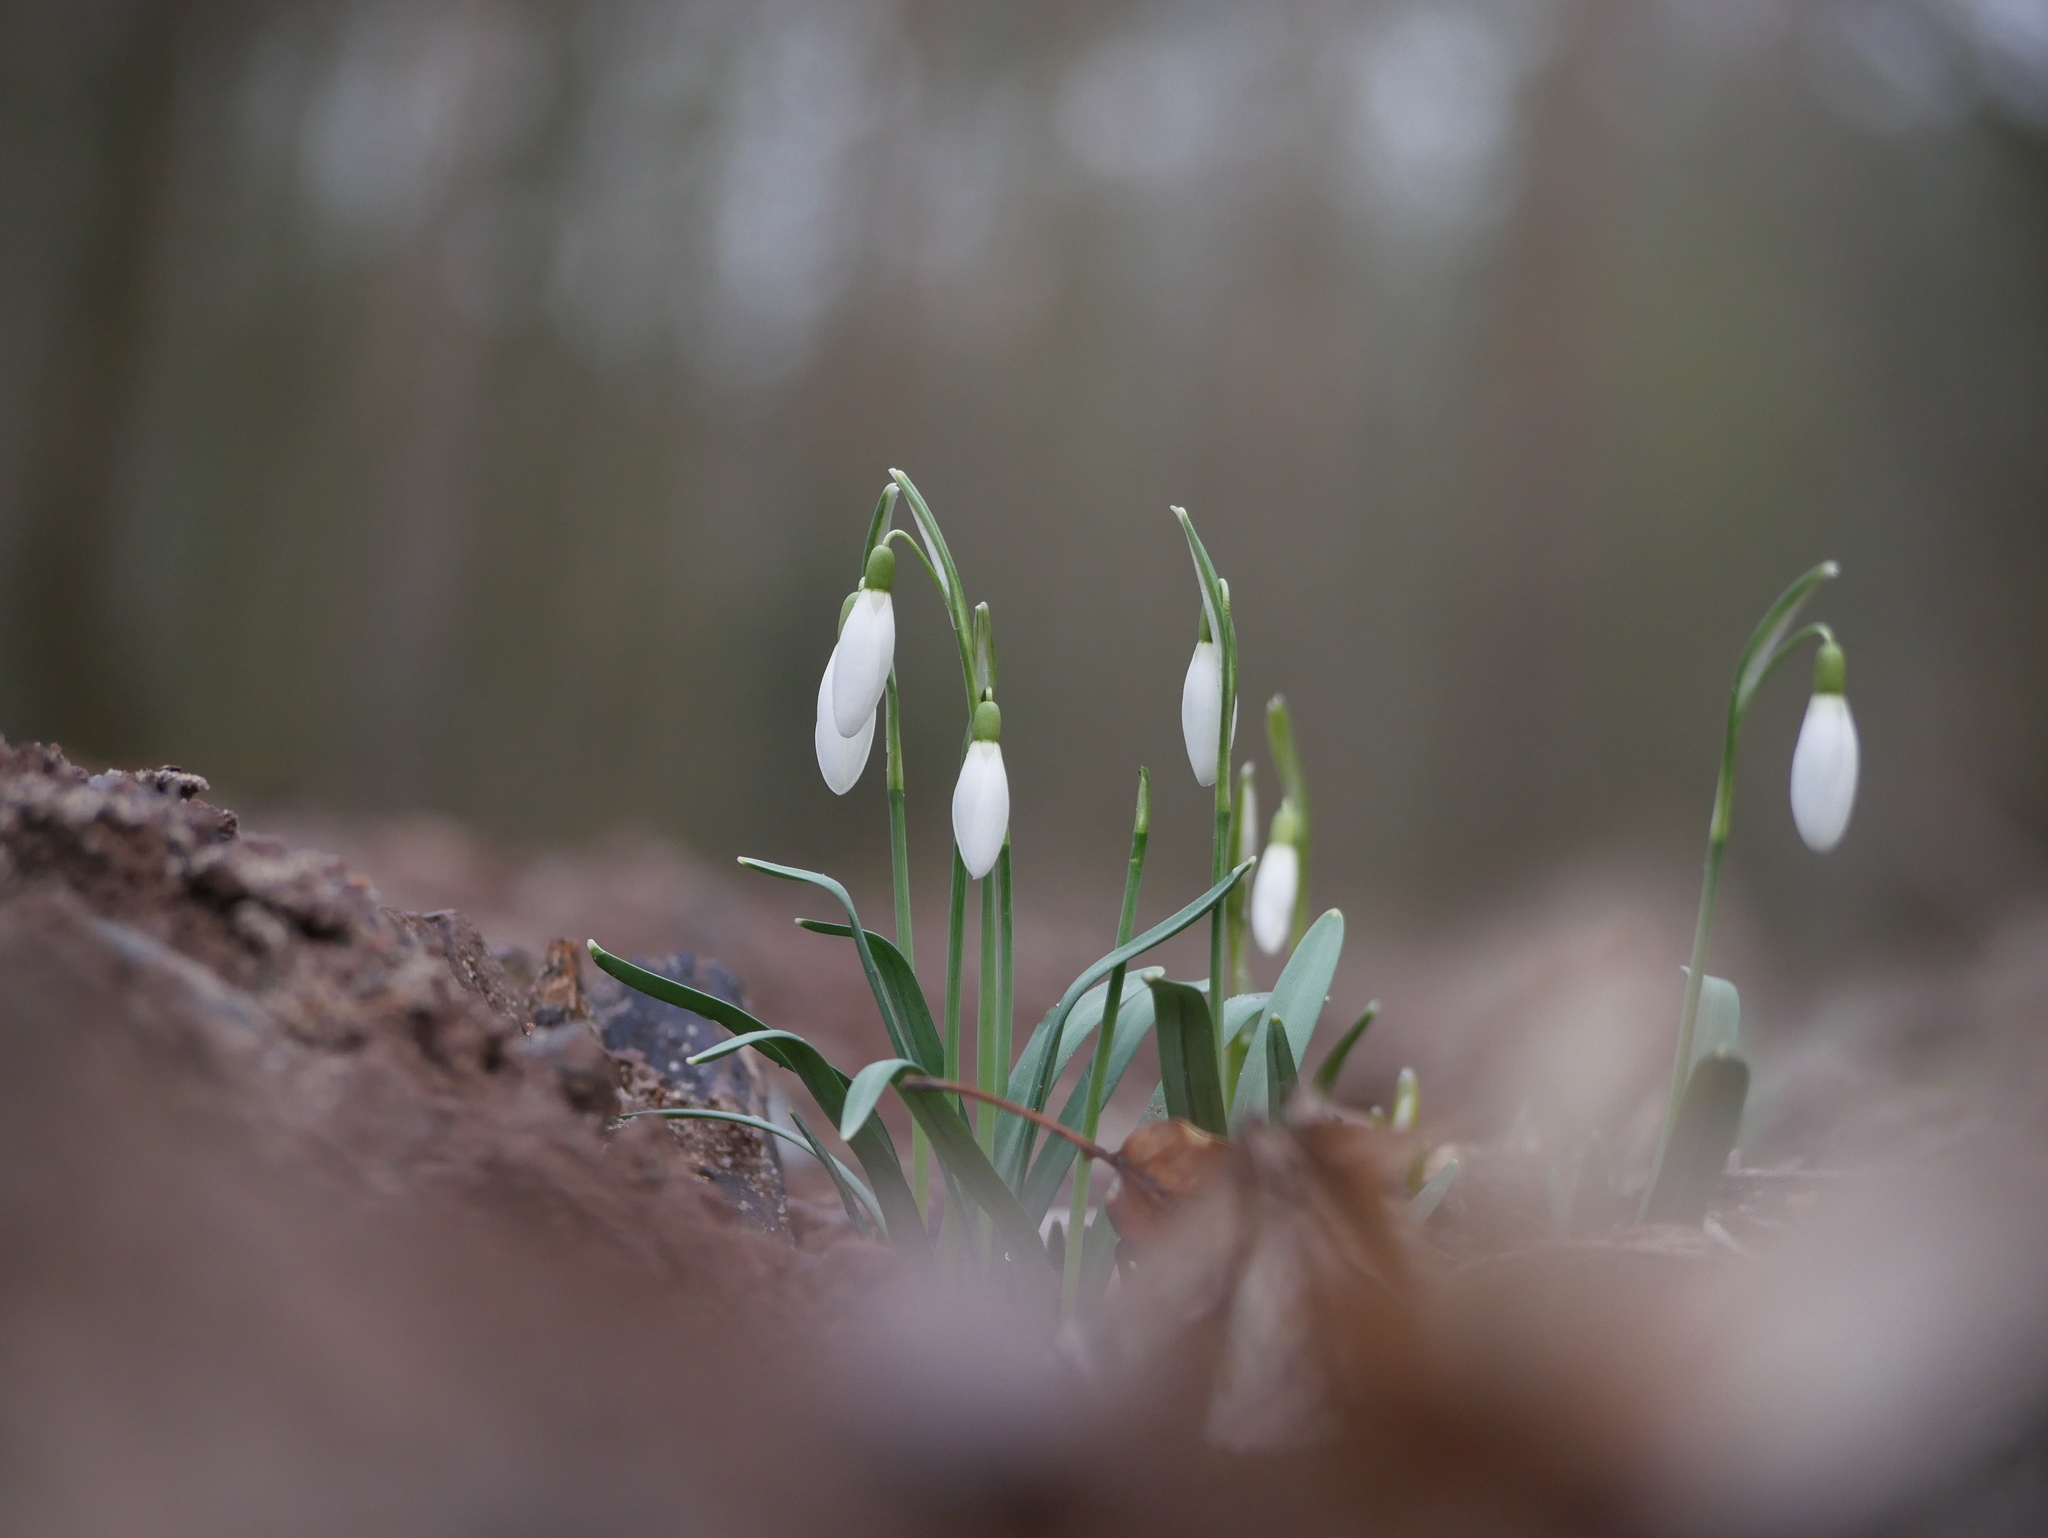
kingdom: Plantae
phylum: Tracheophyta
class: Liliopsida
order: Asparagales
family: Amaryllidaceae
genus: Galanthus
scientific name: Galanthus nivalis
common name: Snowdrop
